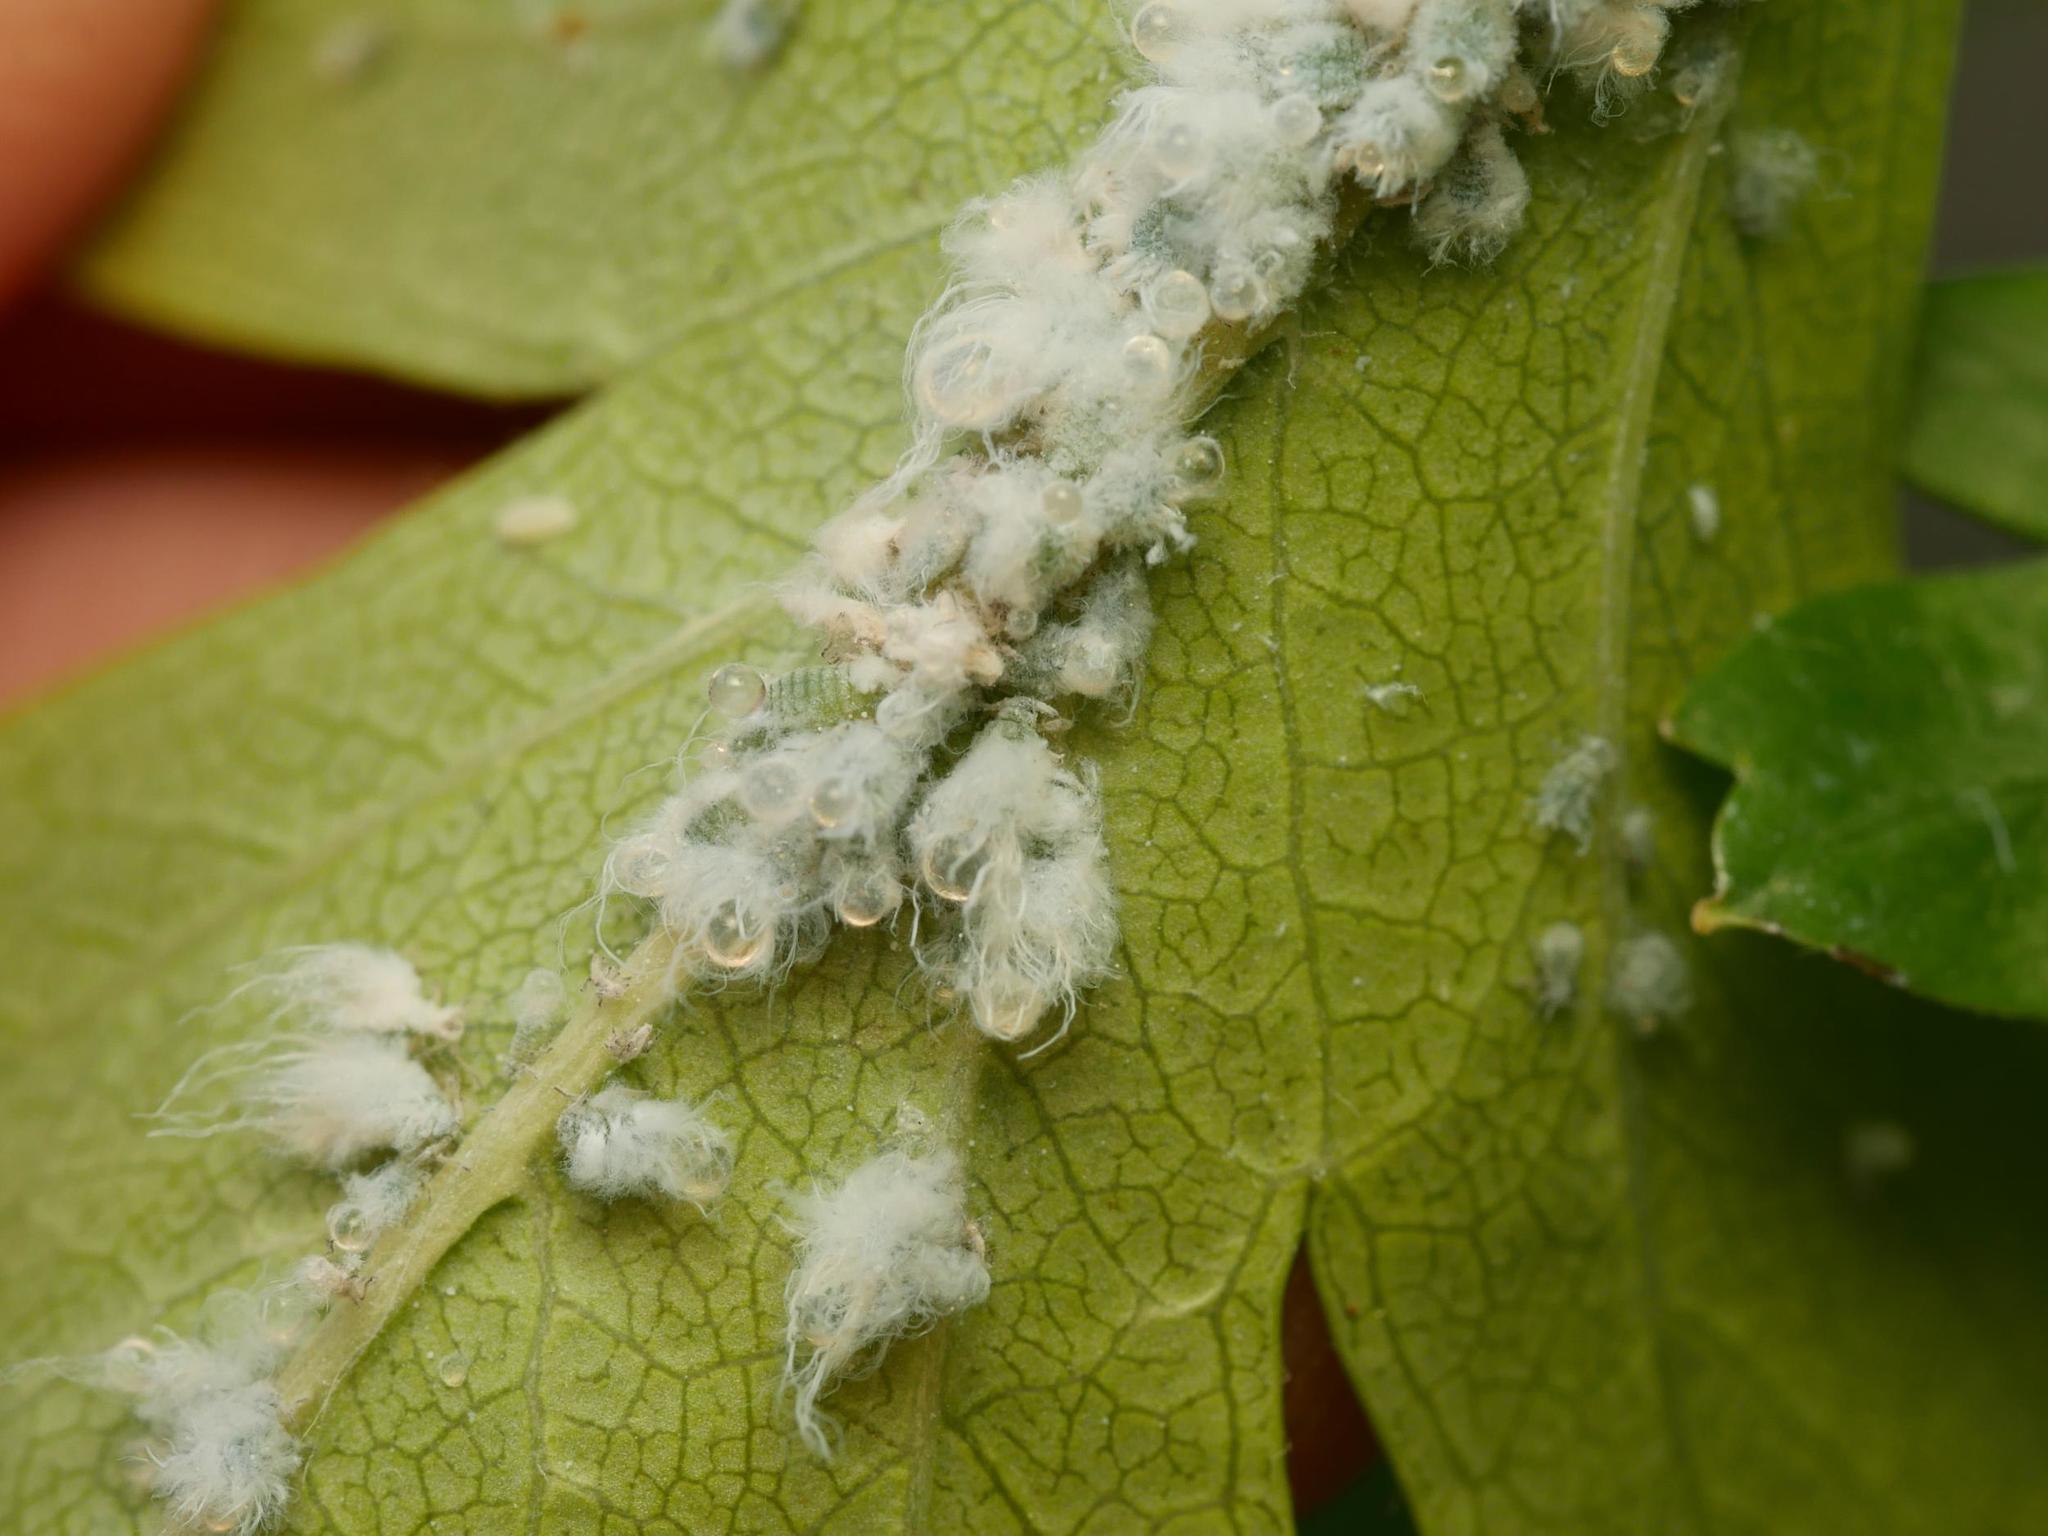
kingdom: Animalia
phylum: Arthropoda
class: Insecta
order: Hemiptera
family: Aphididae
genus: Prociphilus
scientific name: Prociphilus pini
